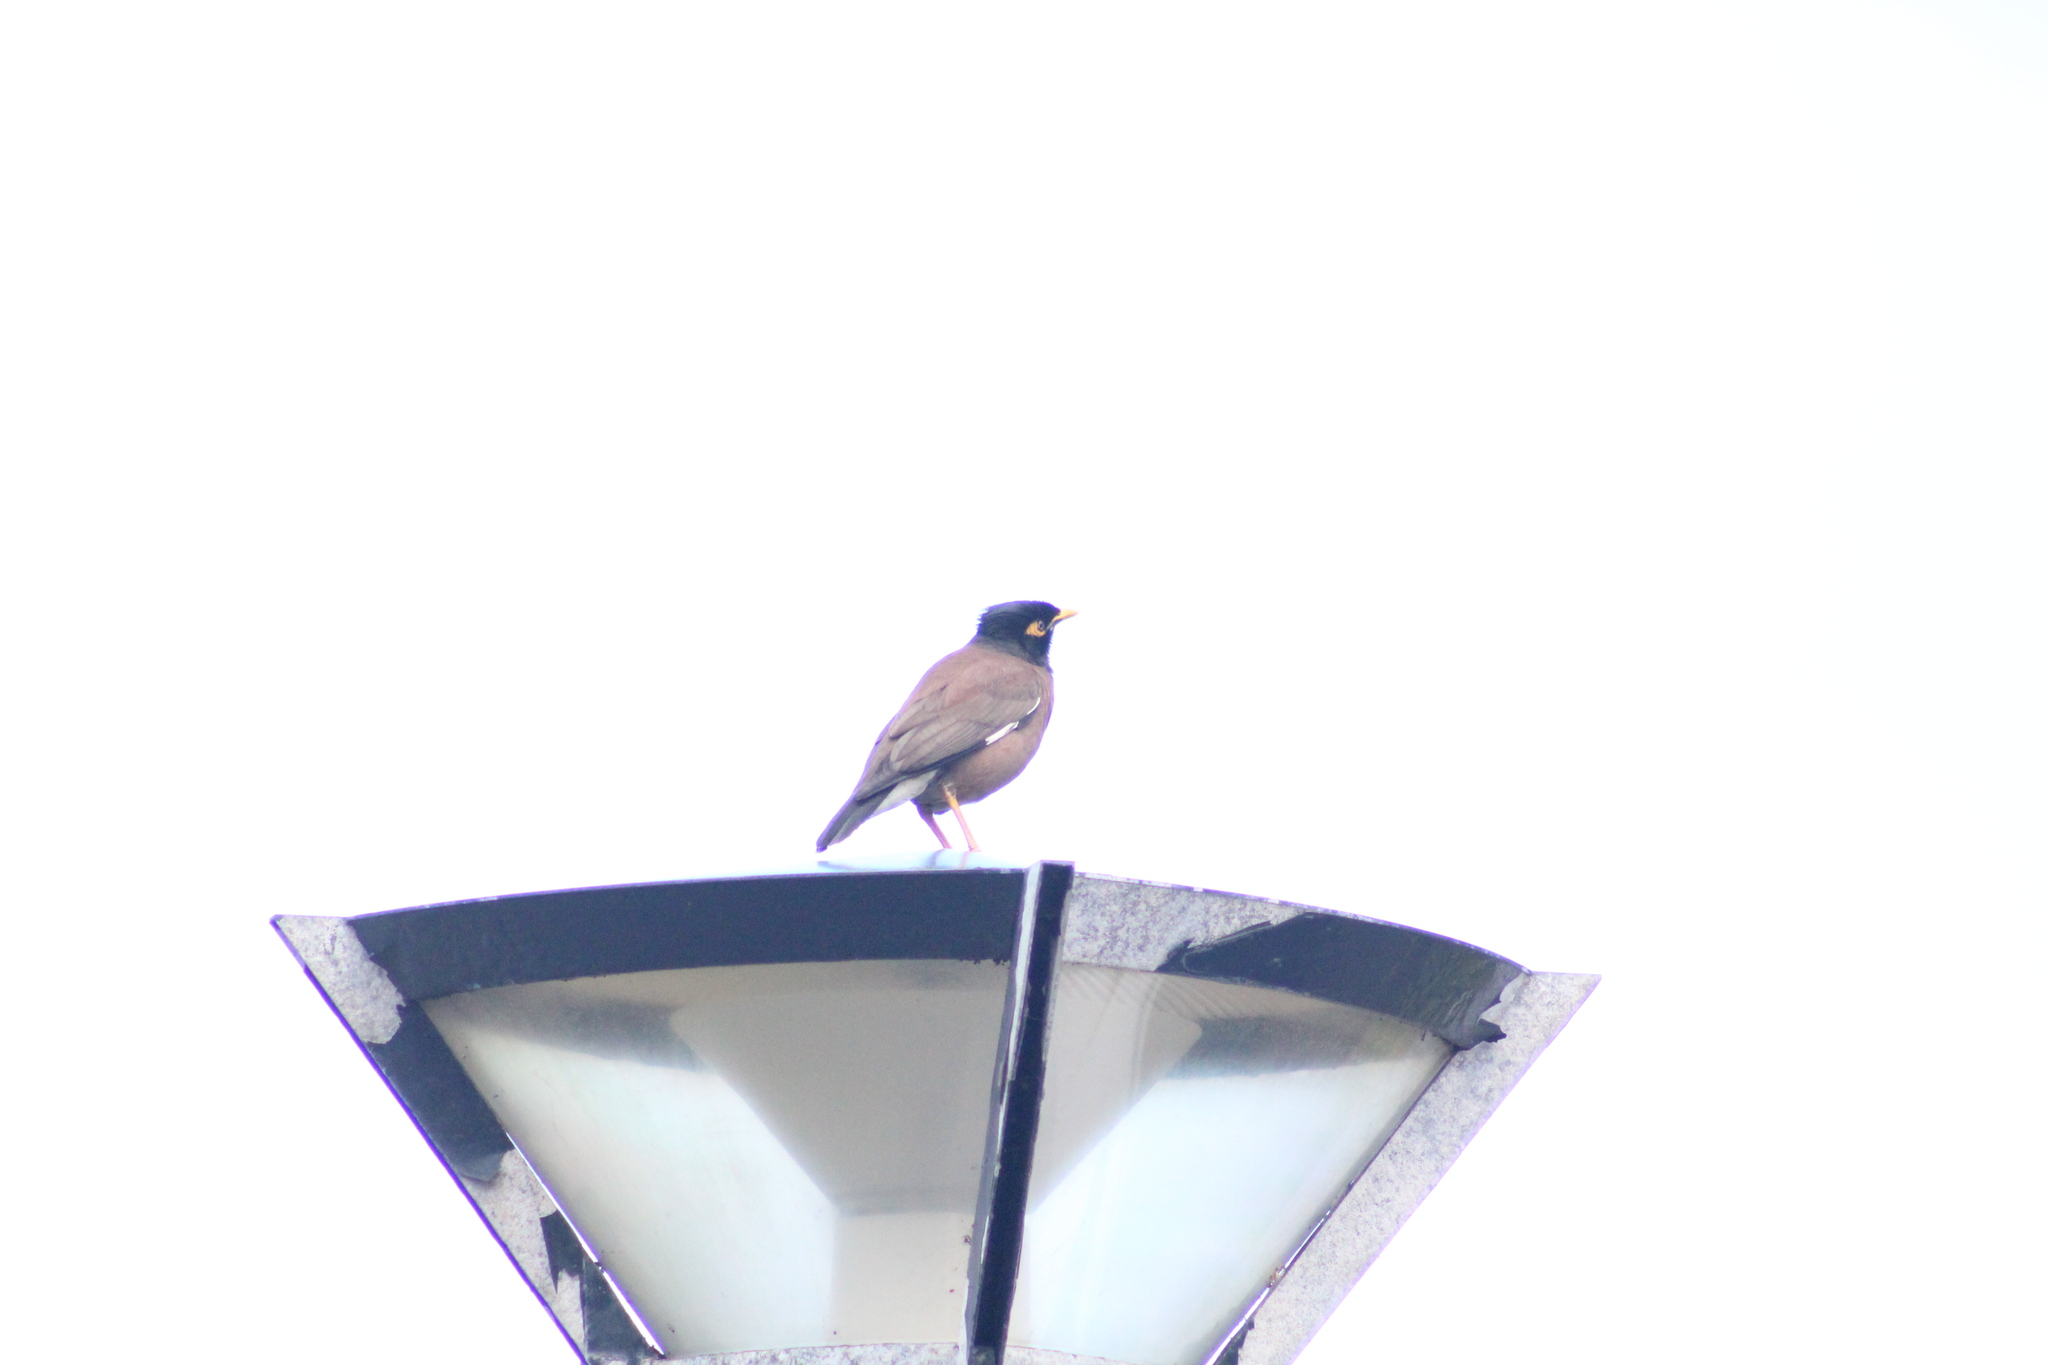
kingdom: Animalia
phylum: Chordata
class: Aves
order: Passeriformes
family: Sturnidae
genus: Acridotheres
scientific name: Acridotheres tristis
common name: Common myna
